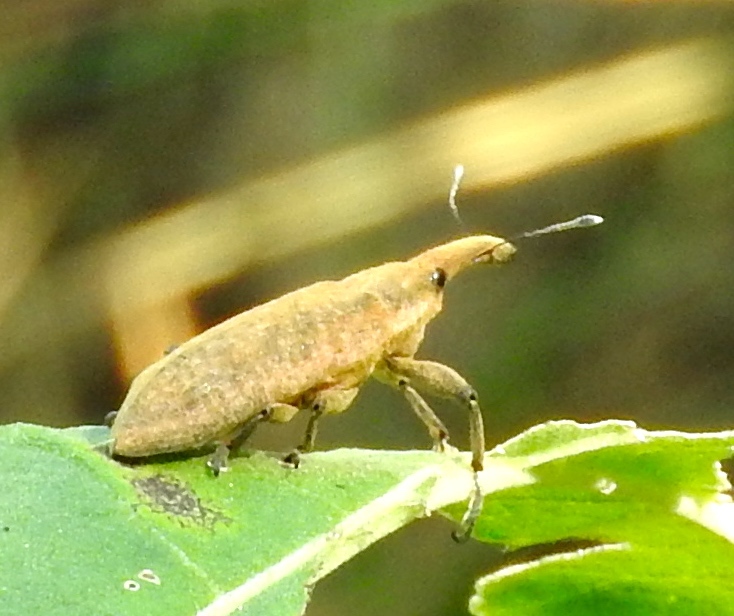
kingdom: Animalia
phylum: Arthropoda
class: Insecta
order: Coleoptera
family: Curculionidae
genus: Lixus
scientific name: Lixus
